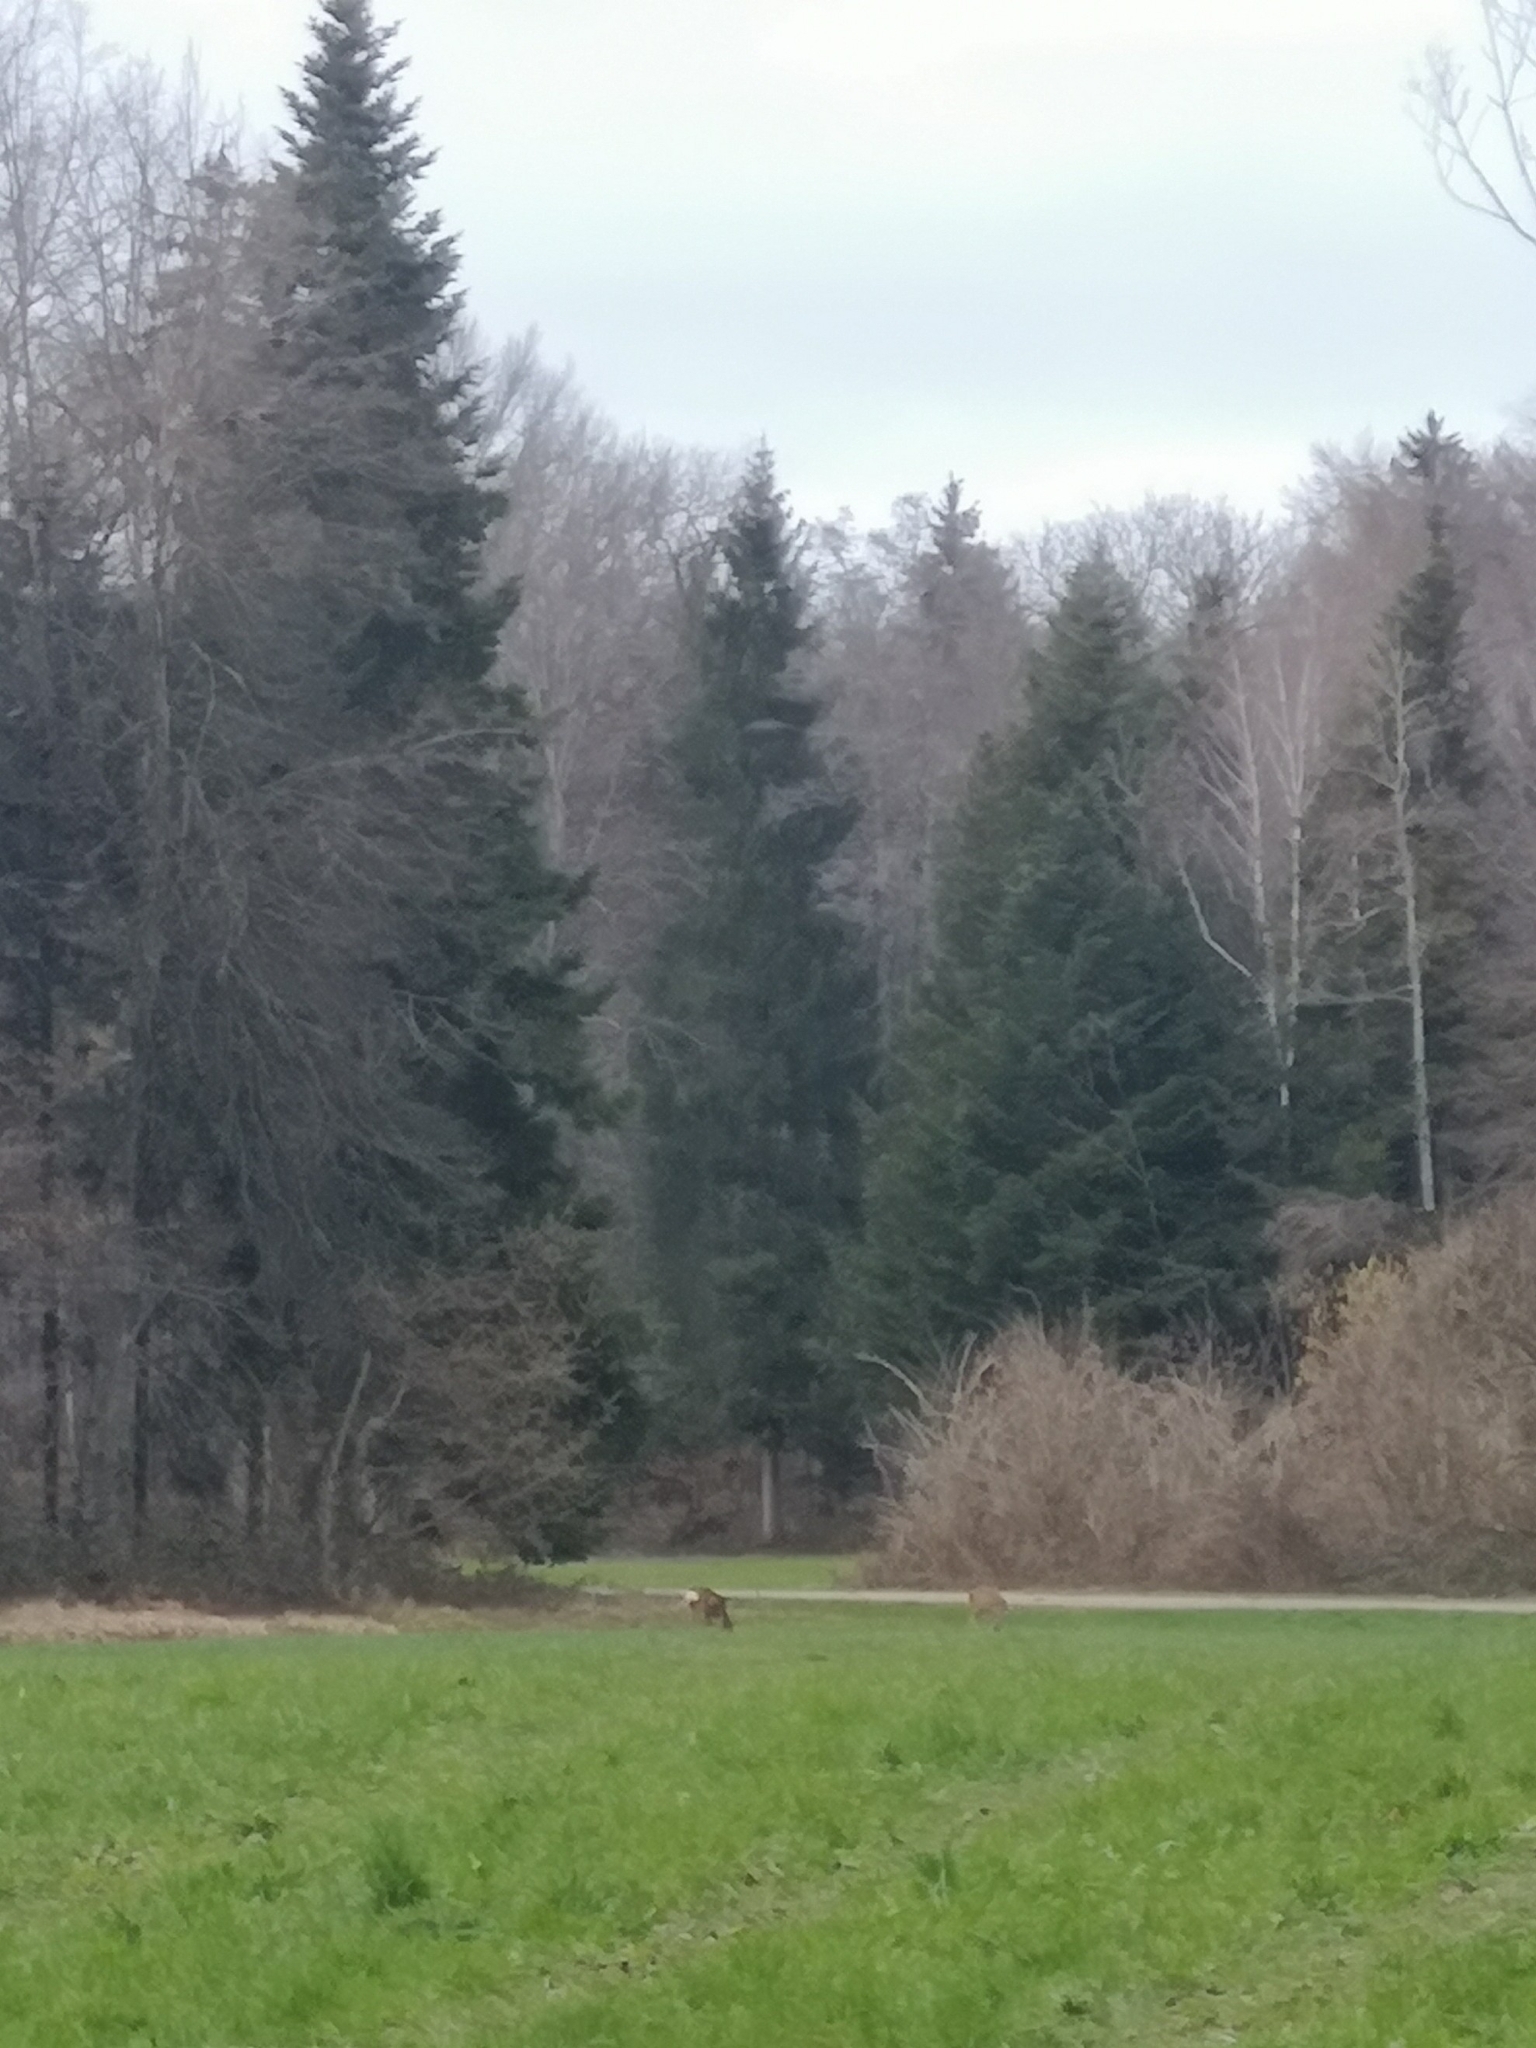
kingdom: Animalia
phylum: Chordata
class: Mammalia
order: Artiodactyla
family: Cervidae
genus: Capreolus
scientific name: Capreolus capreolus
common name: Western roe deer
